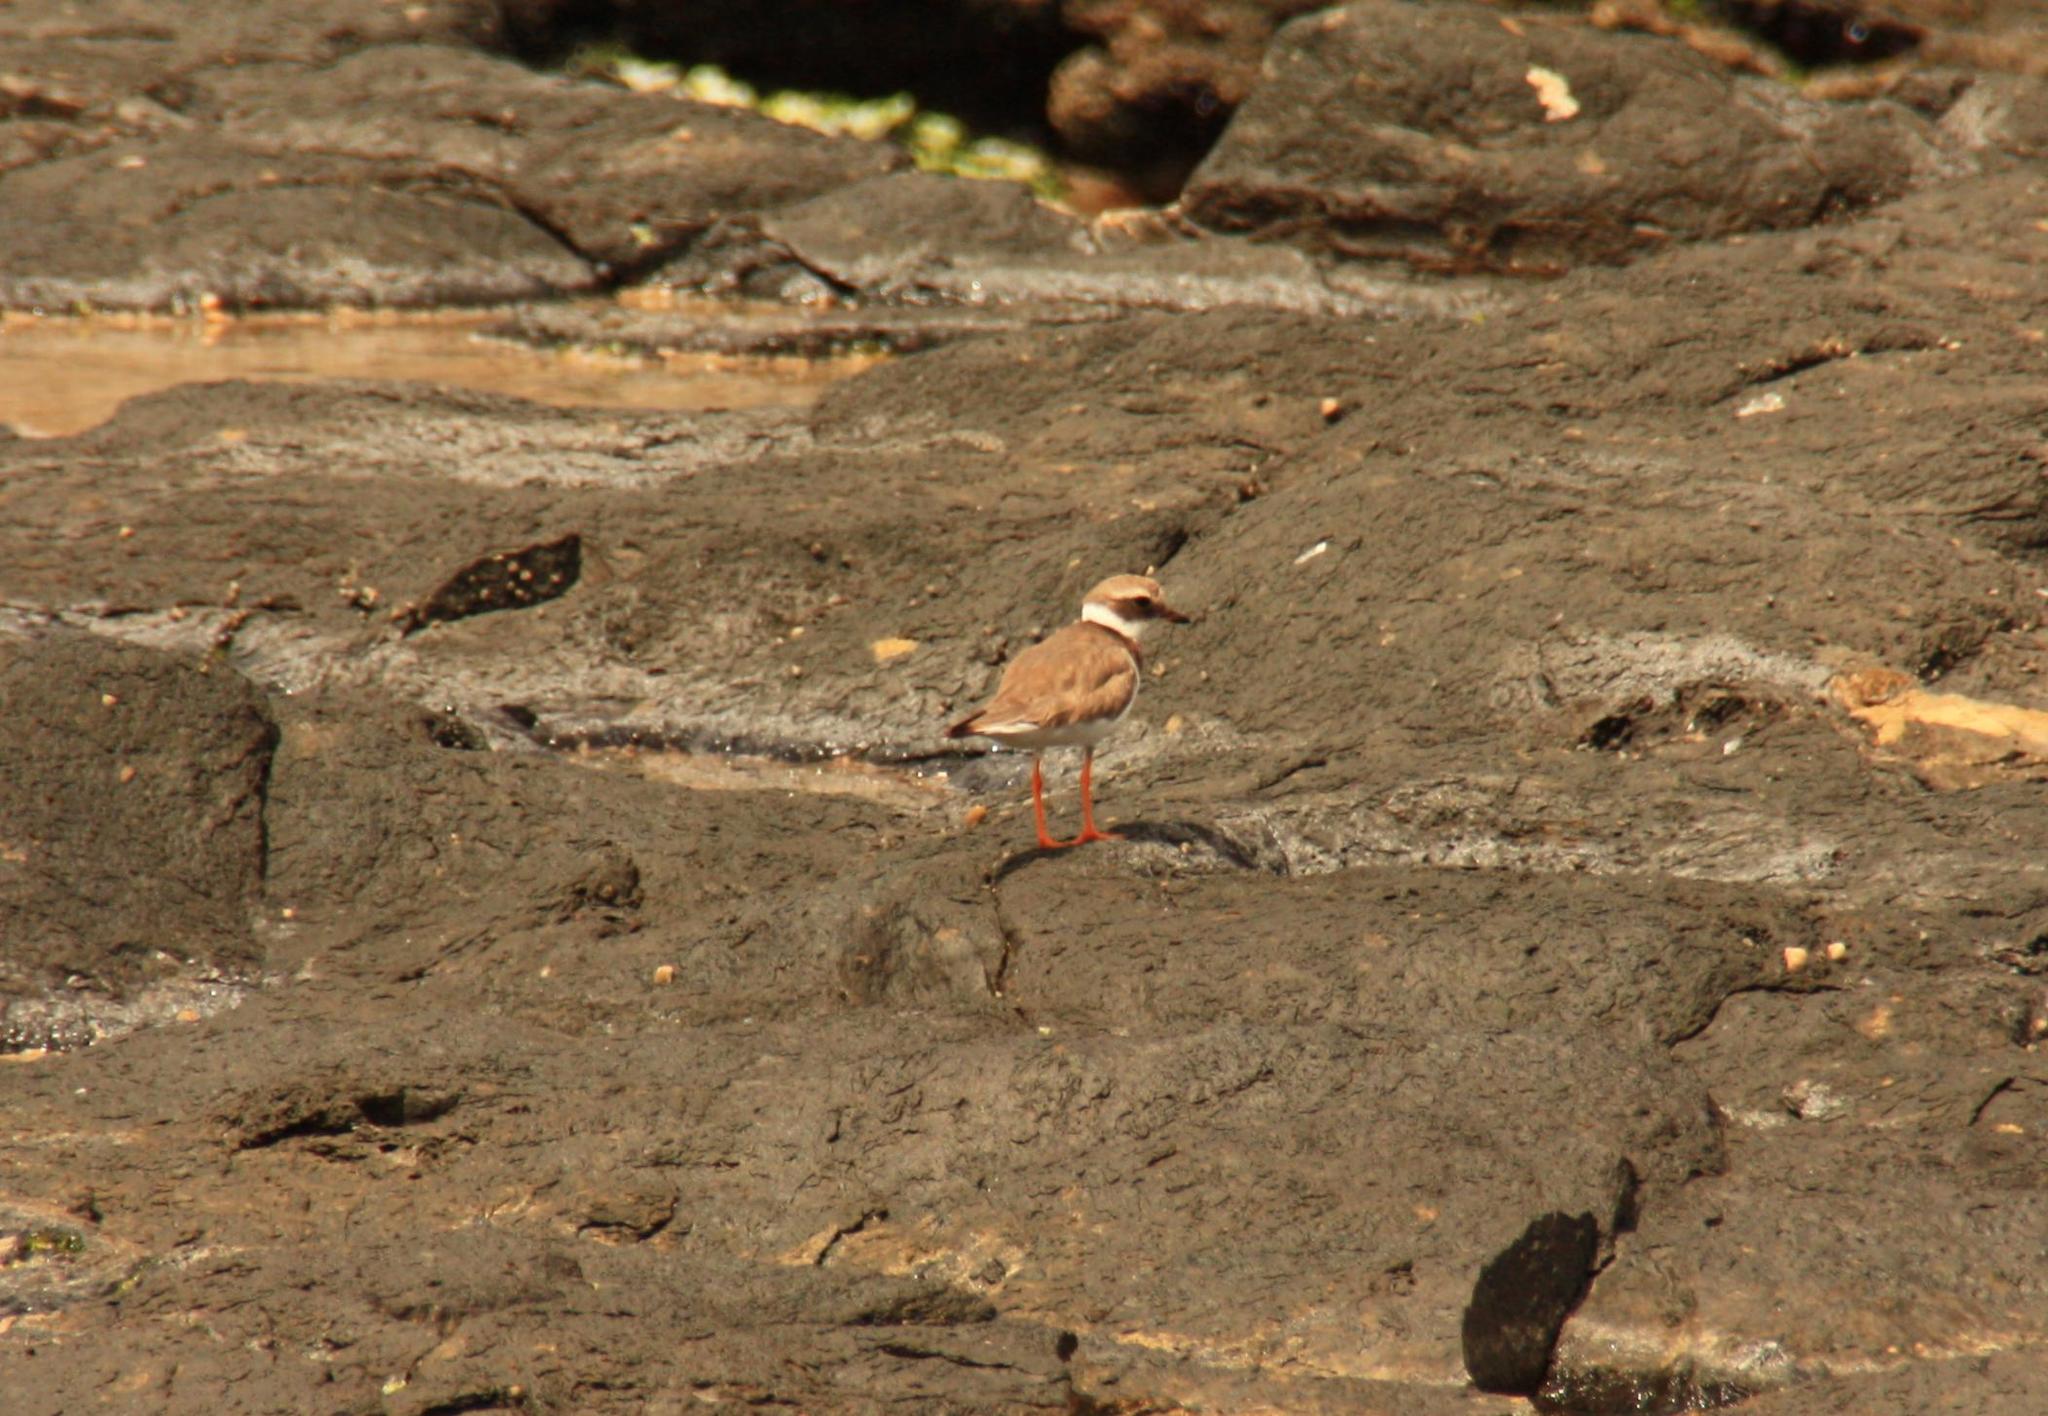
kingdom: Animalia
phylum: Chordata
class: Aves
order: Charadriiformes
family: Charadriidae
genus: Charadrius
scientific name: Charadrius hiaticula
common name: Common ringed plover
